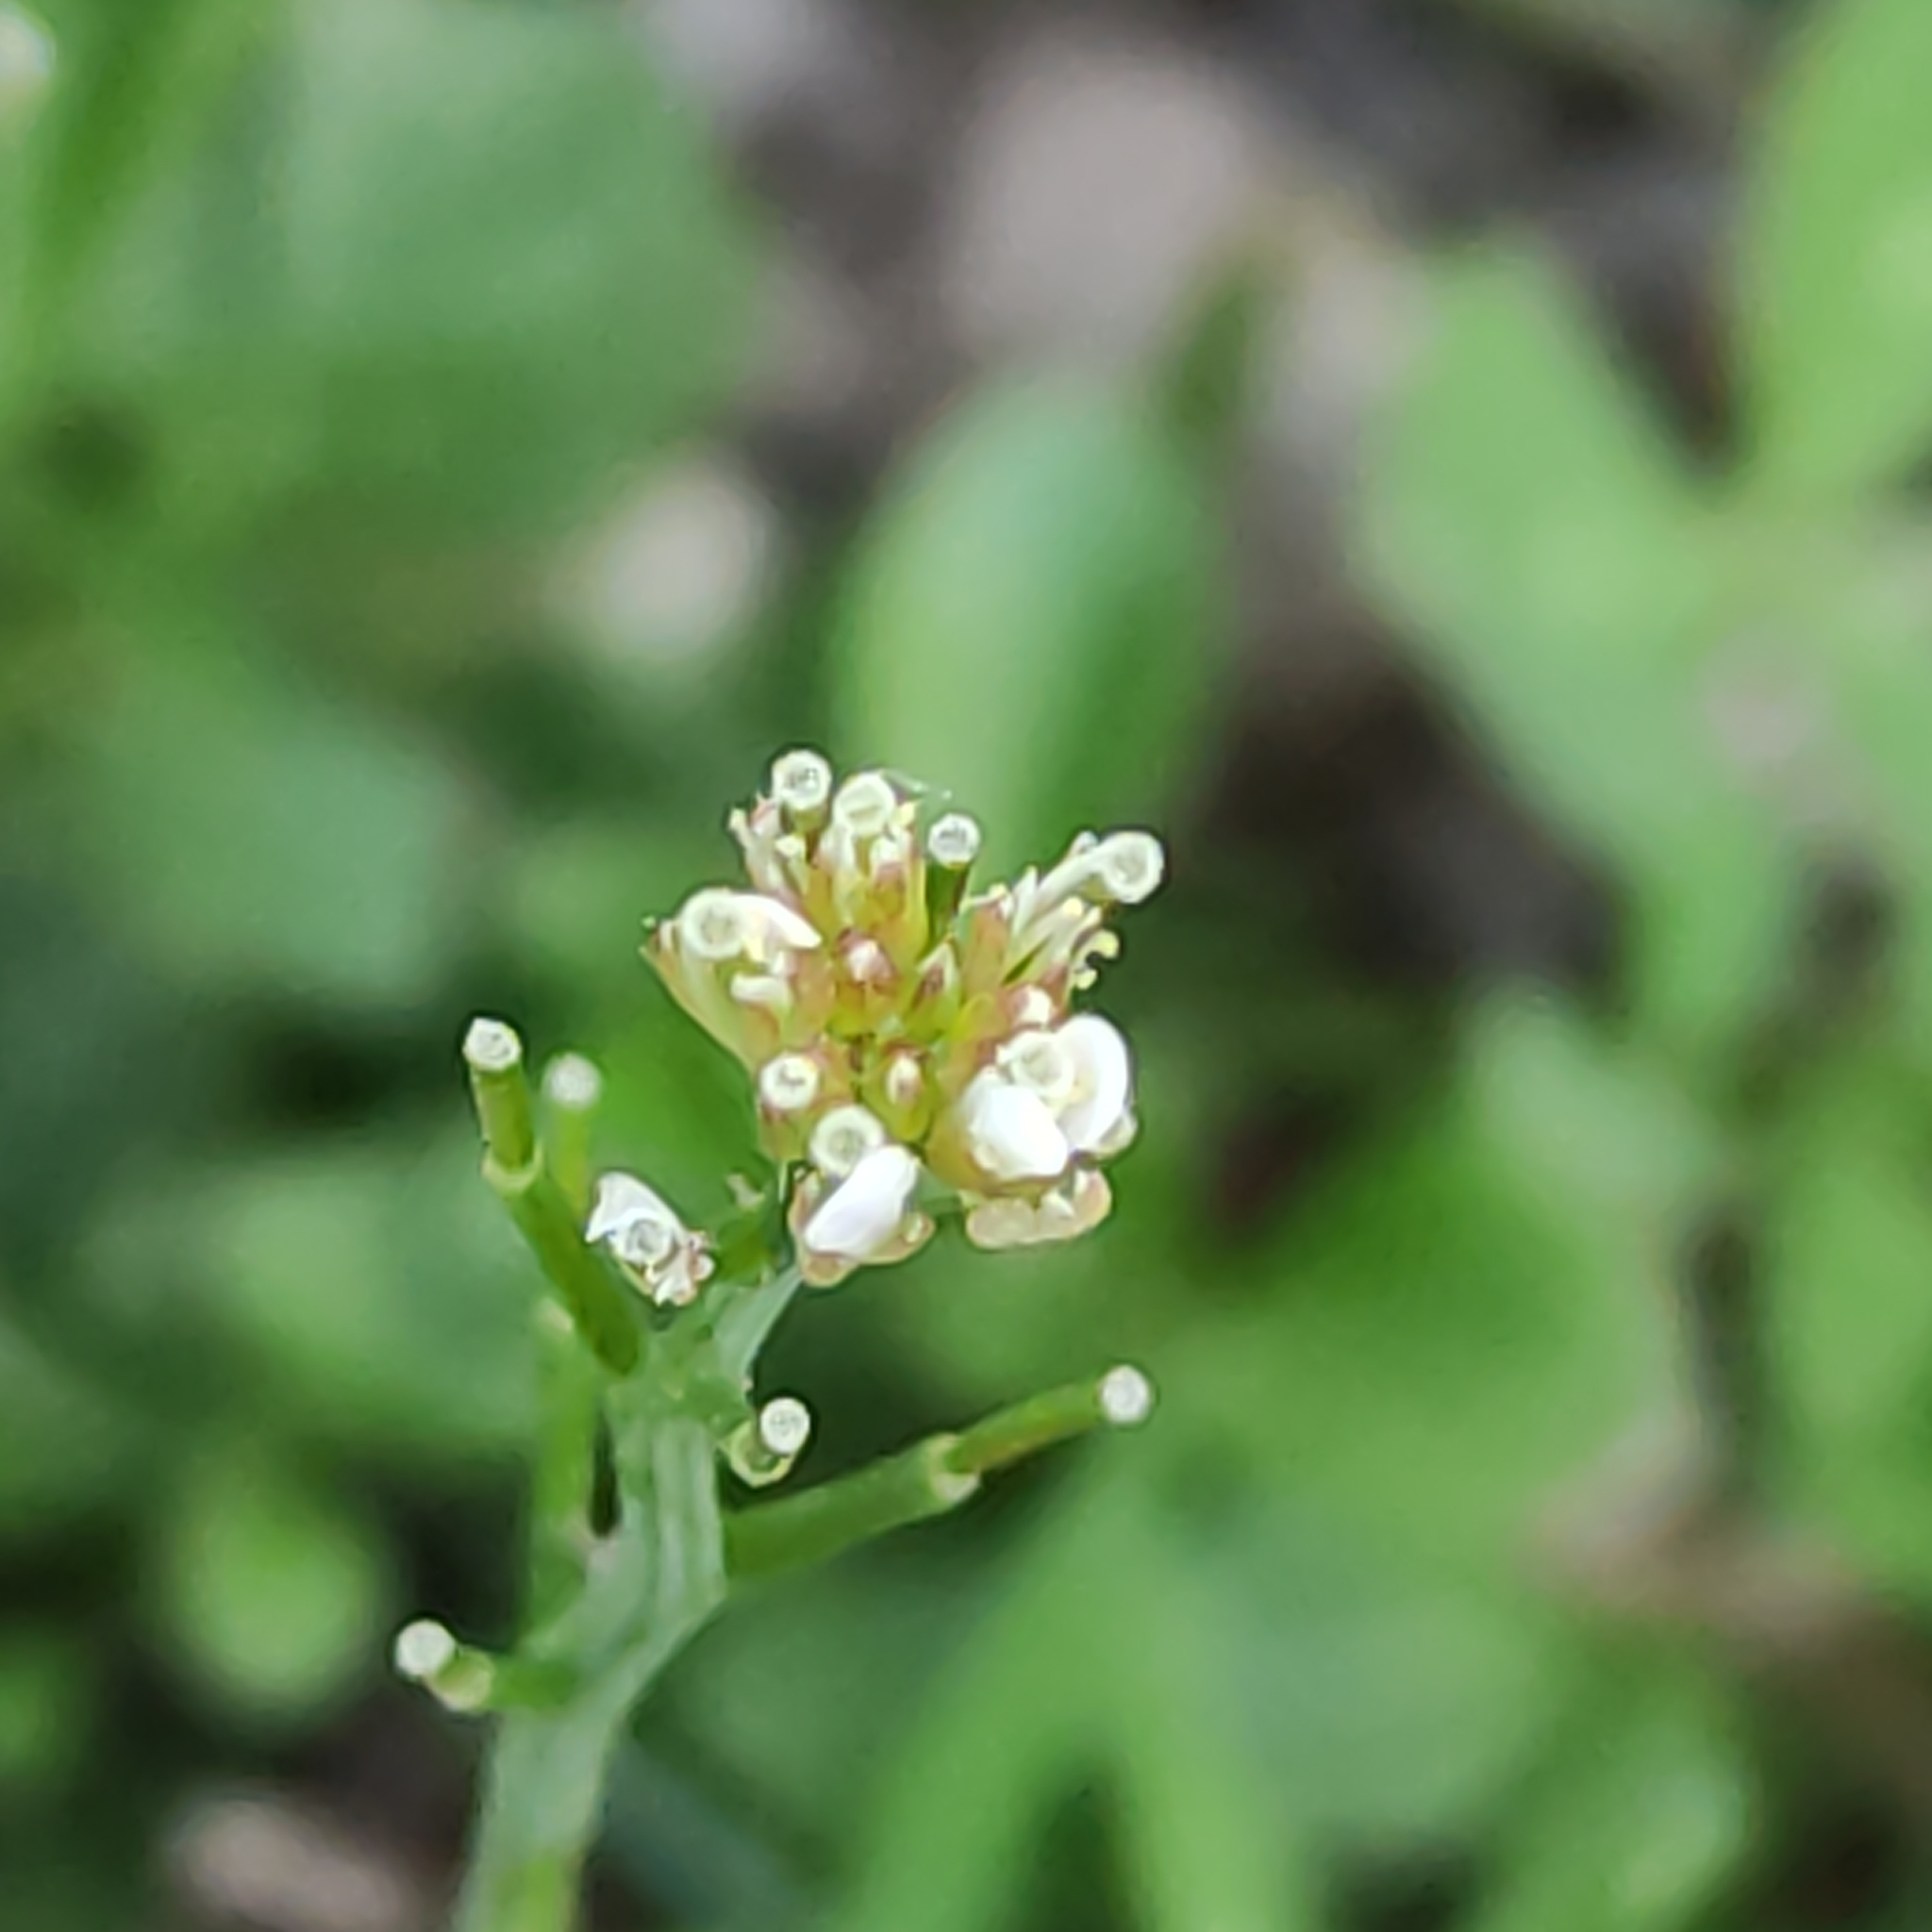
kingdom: Plantae
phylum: Tracheophyta
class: Magnoliopsida
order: Brassicales
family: Brassicaceae
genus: Cardamine
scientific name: Cardamine flexuosa
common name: Woodland bittercress
